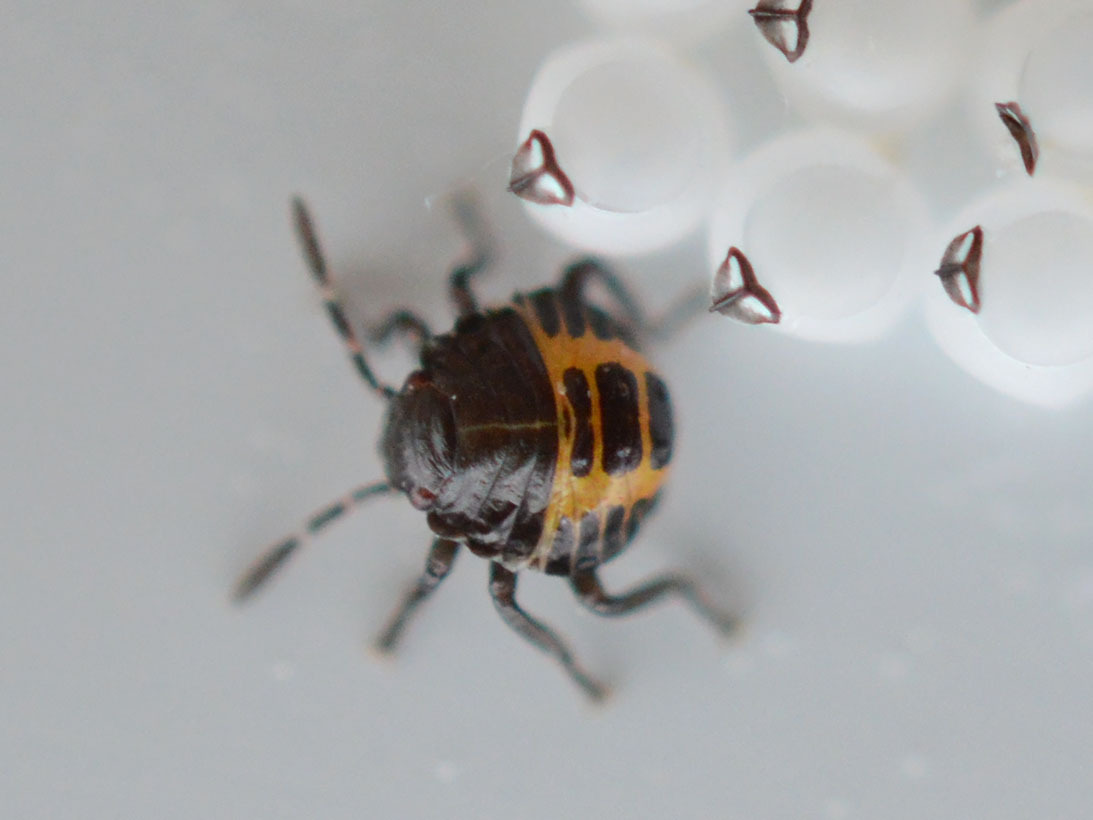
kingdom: Animalia
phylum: Arthropoda
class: Insecta
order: Hemiptera
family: Pentatomidae
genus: Halyomorpha
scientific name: Halyomorpha halys
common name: Brown marmorated stink bug
